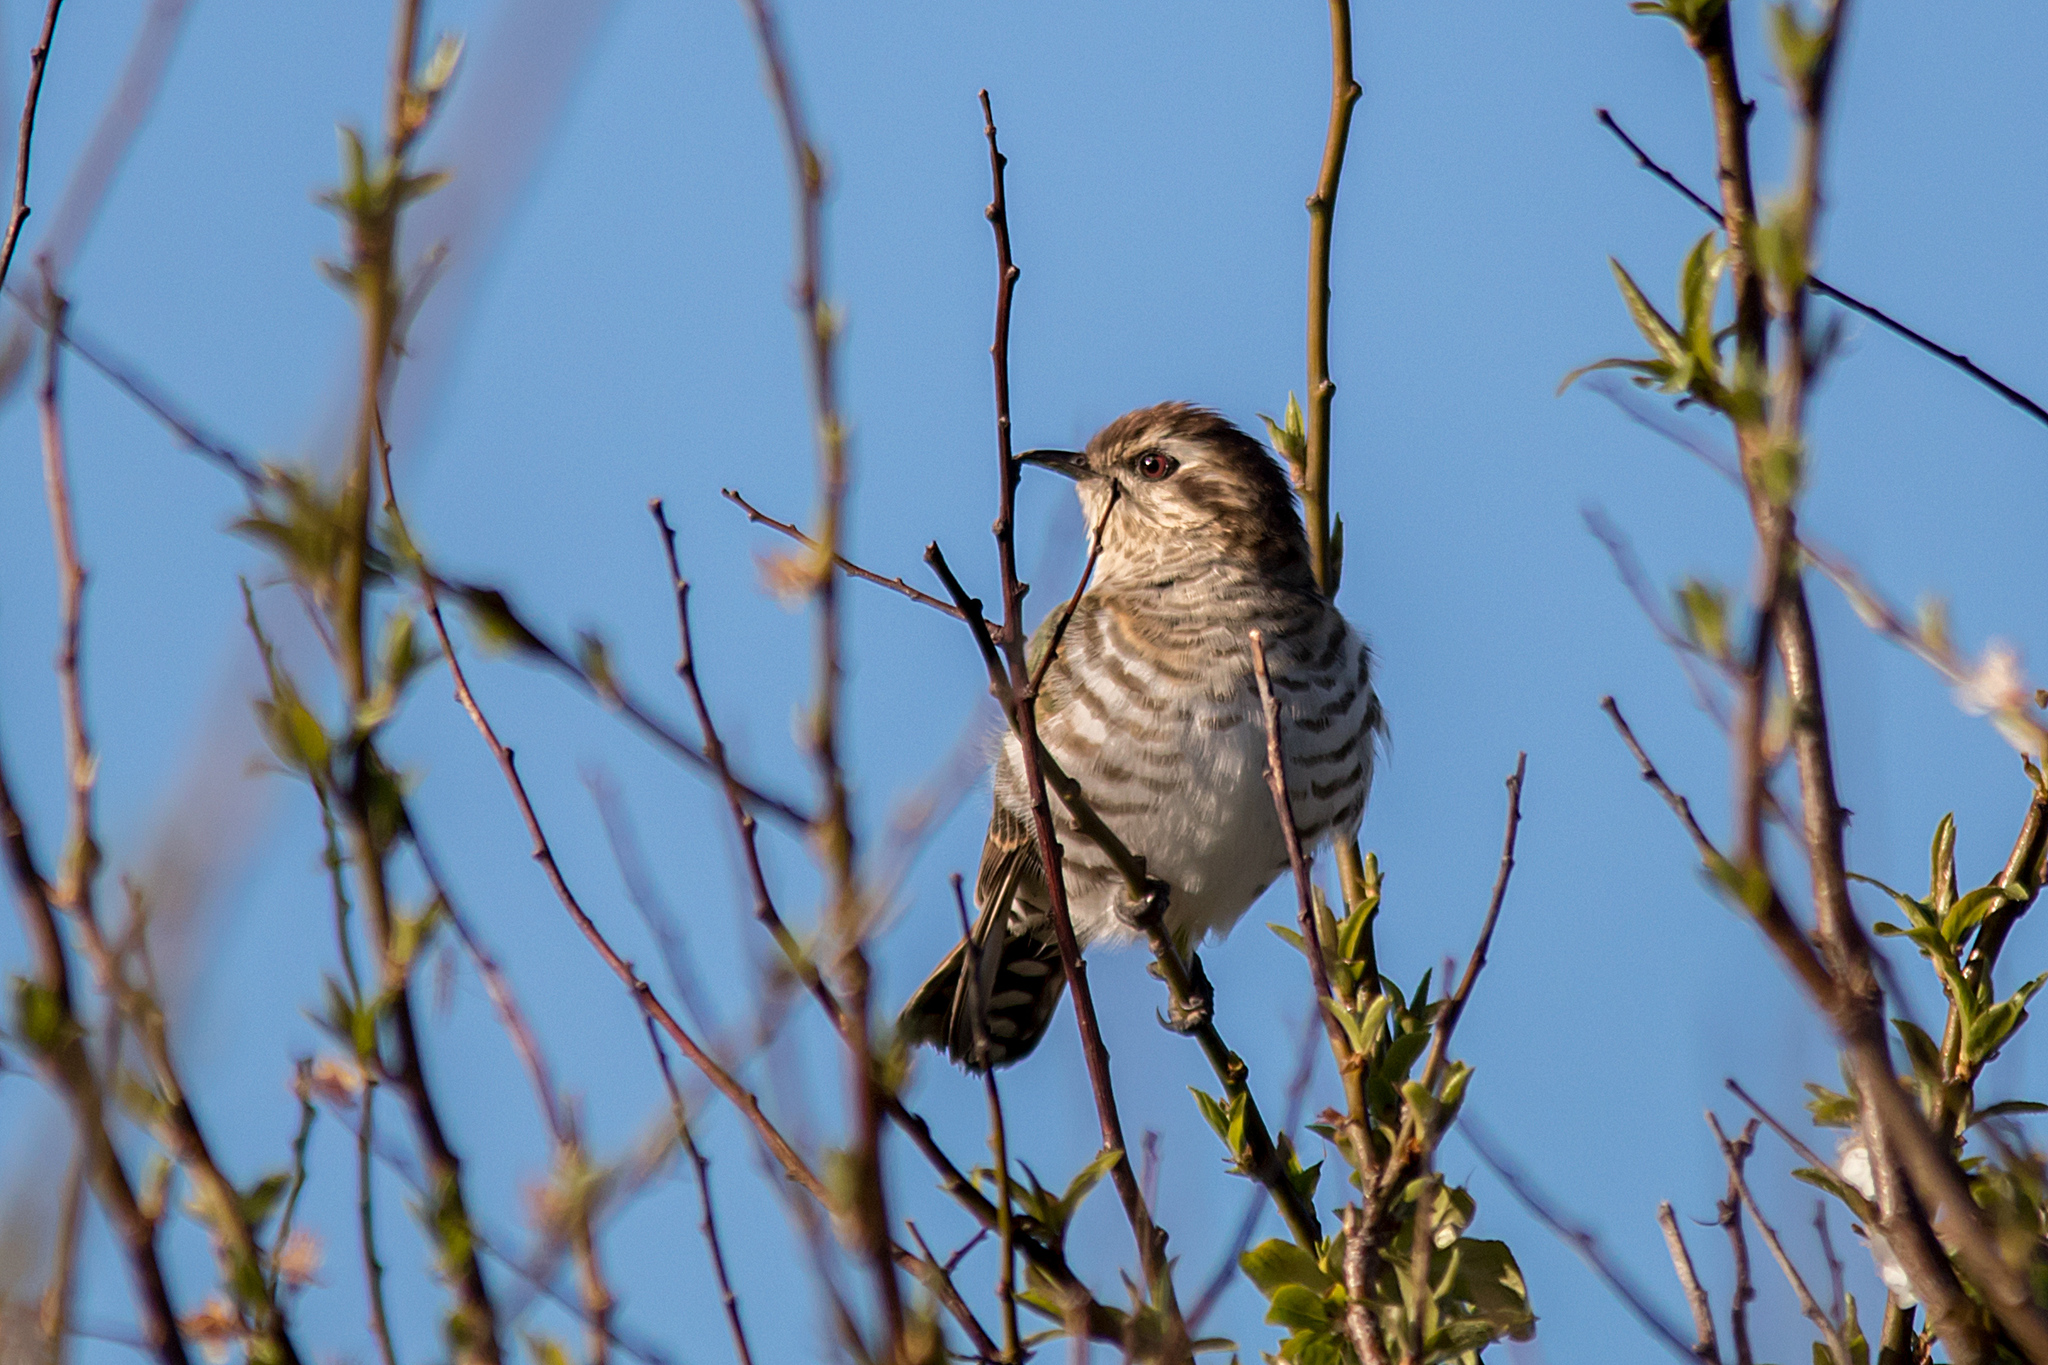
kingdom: Animalia
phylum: Chordata
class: Aves
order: Cuculiformes
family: Cuculidae
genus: Chrysococcyx
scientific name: Chrysococcyx basalis
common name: Horsfield's bronze cuckoo
